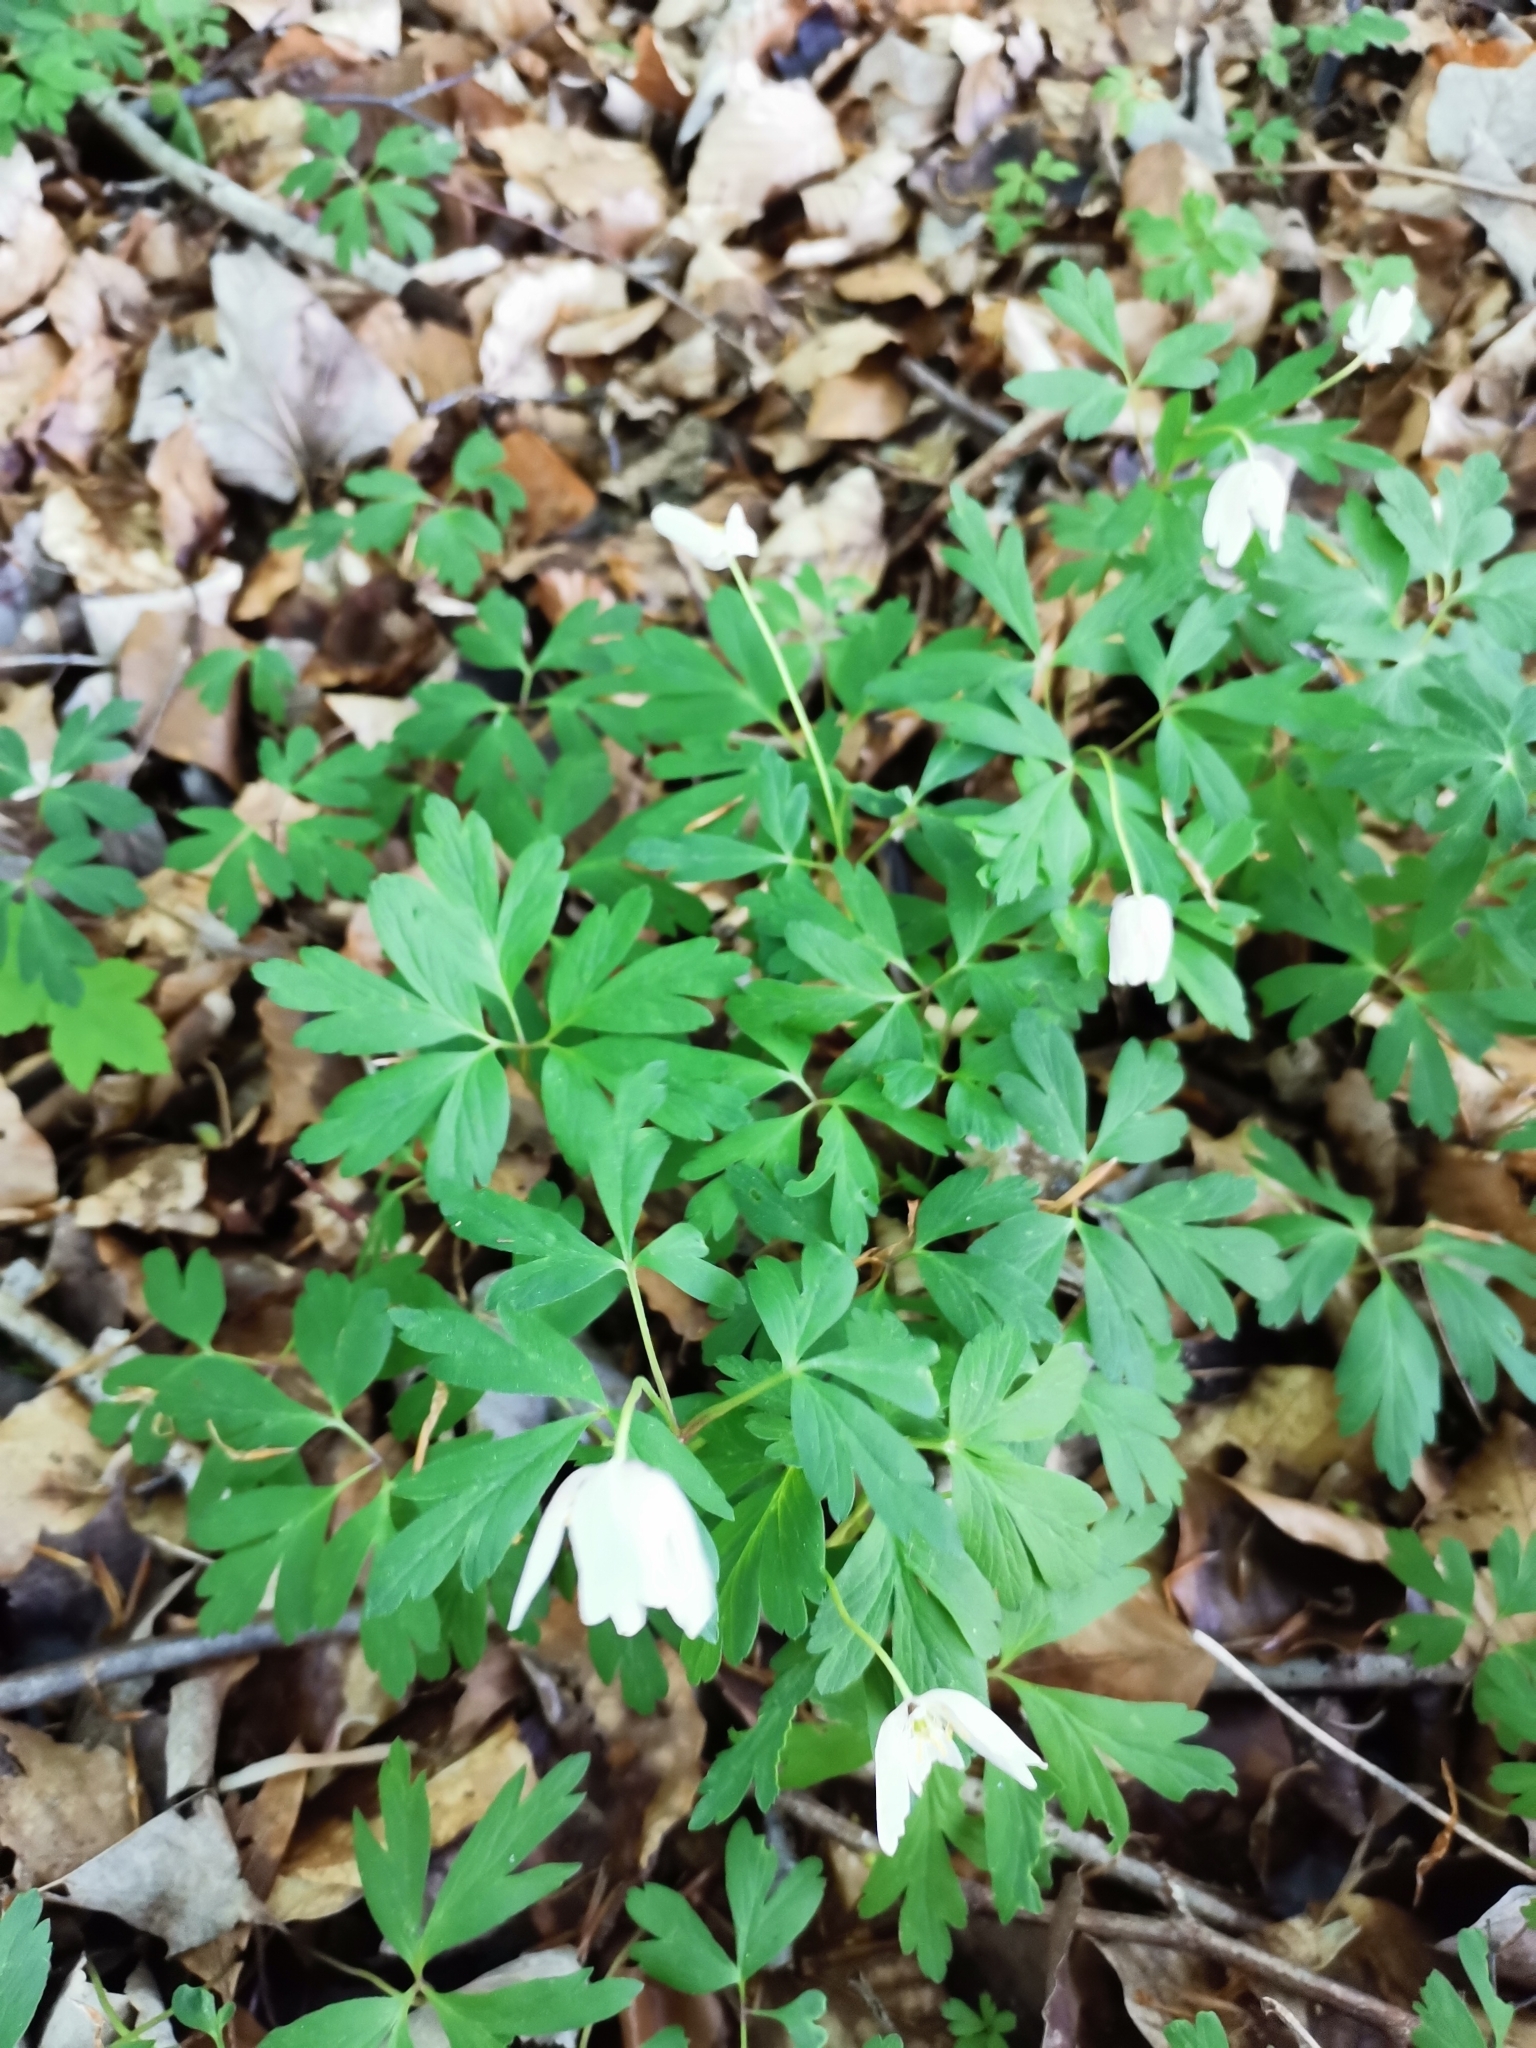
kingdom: Plantae
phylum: Tracheophyta
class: Magnoliopsida
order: Ranunculales
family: Ranunculaceae
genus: Anemone
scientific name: Anemone nemorosa
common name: Wood anemone
